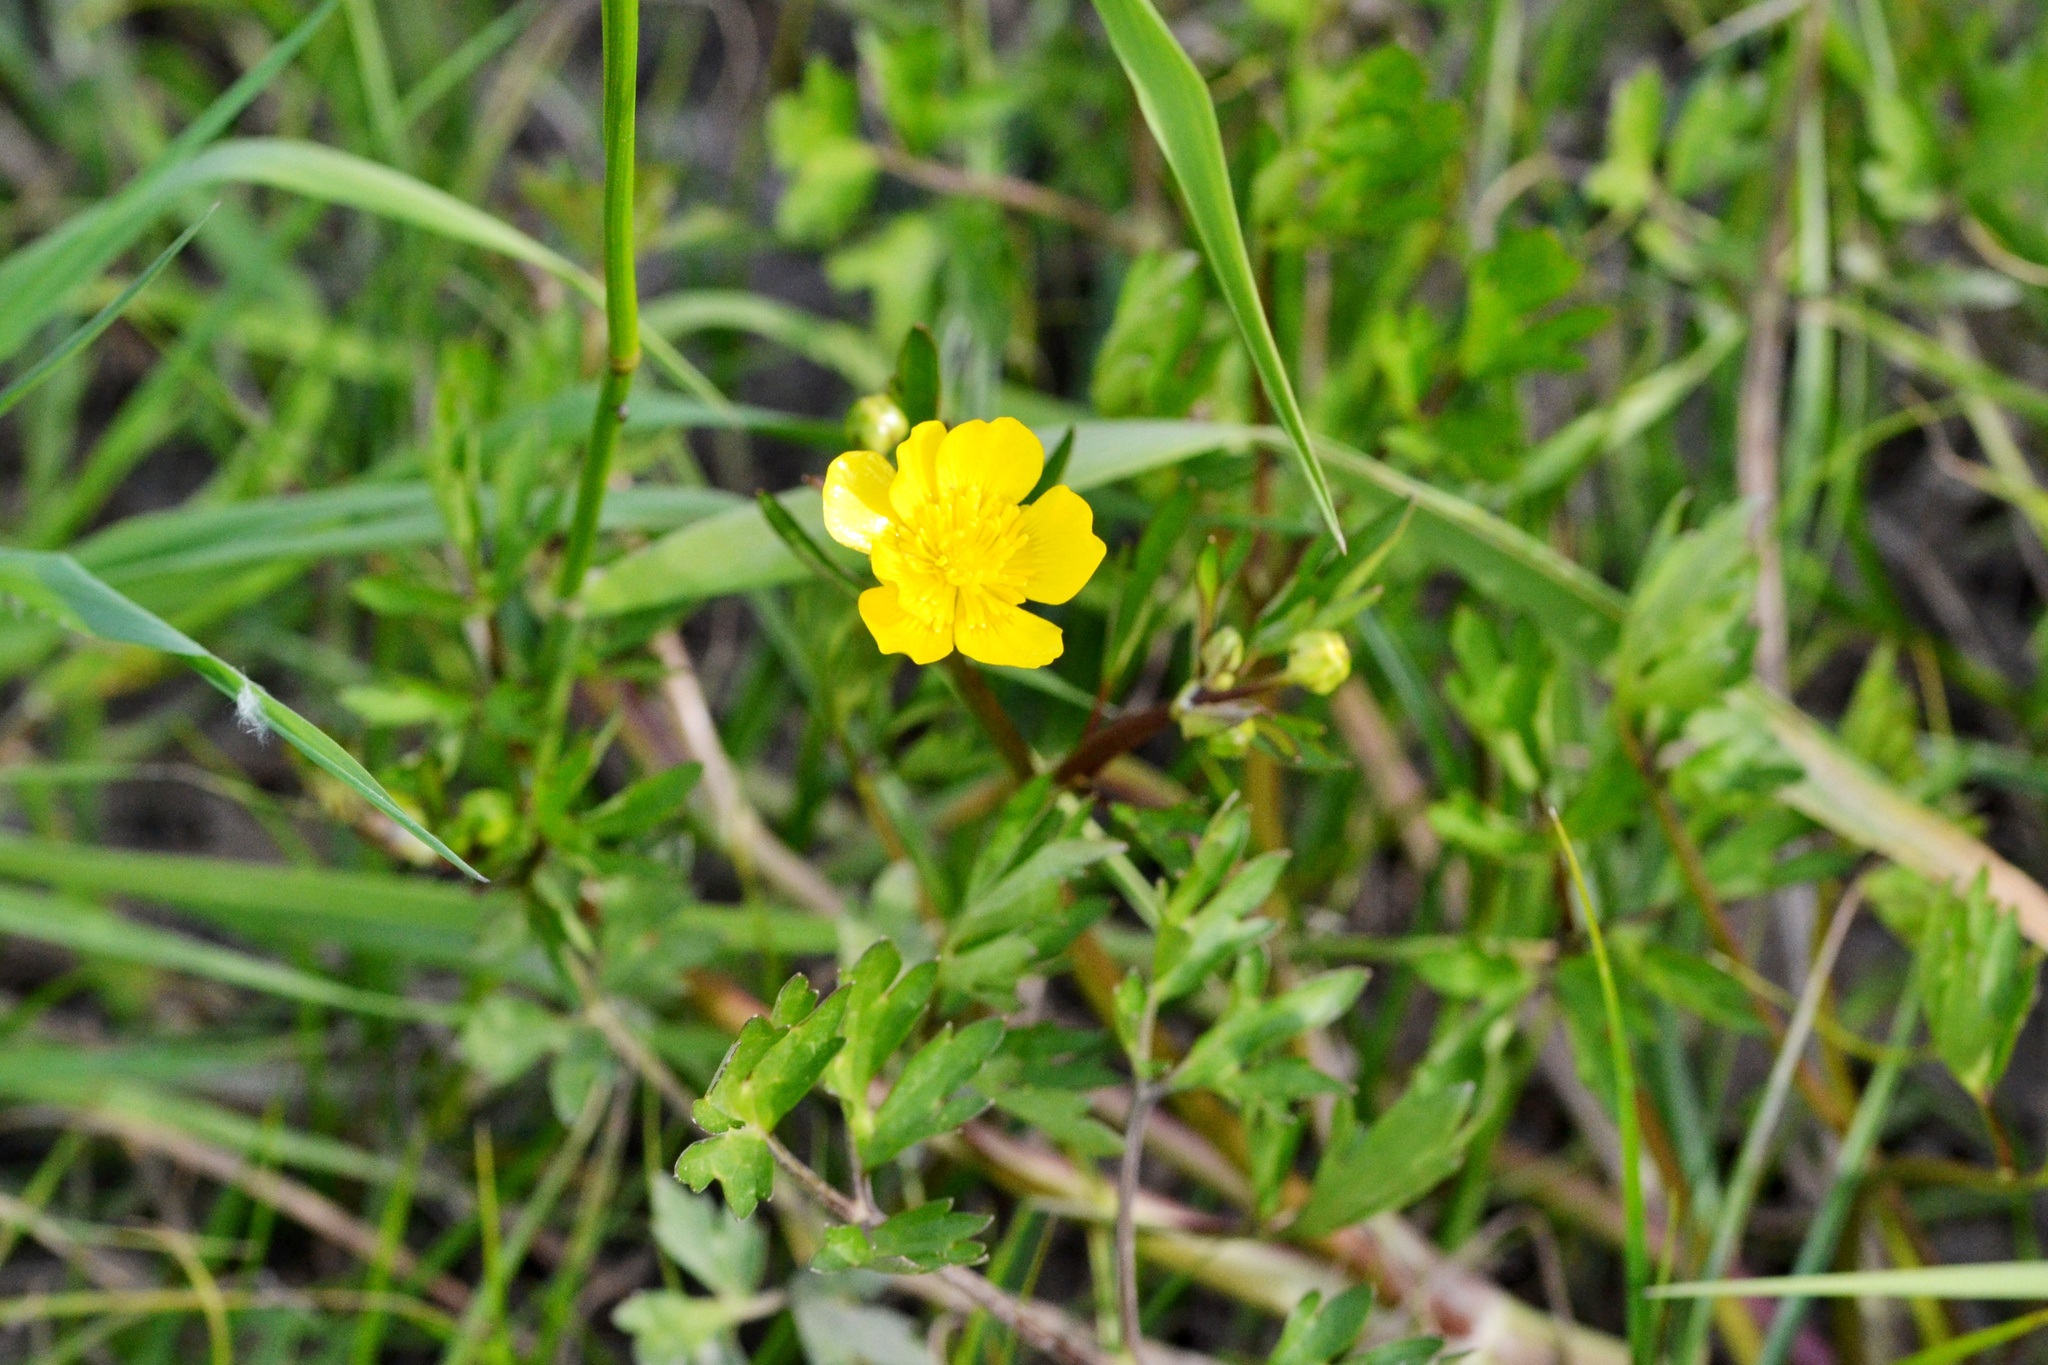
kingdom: Plantae
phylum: Tracheophyta
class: Magnoliopsida
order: Ranunculales
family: Ranunculaceae
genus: Ranunculus
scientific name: Ranunculus repens
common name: Creeping buttercup
